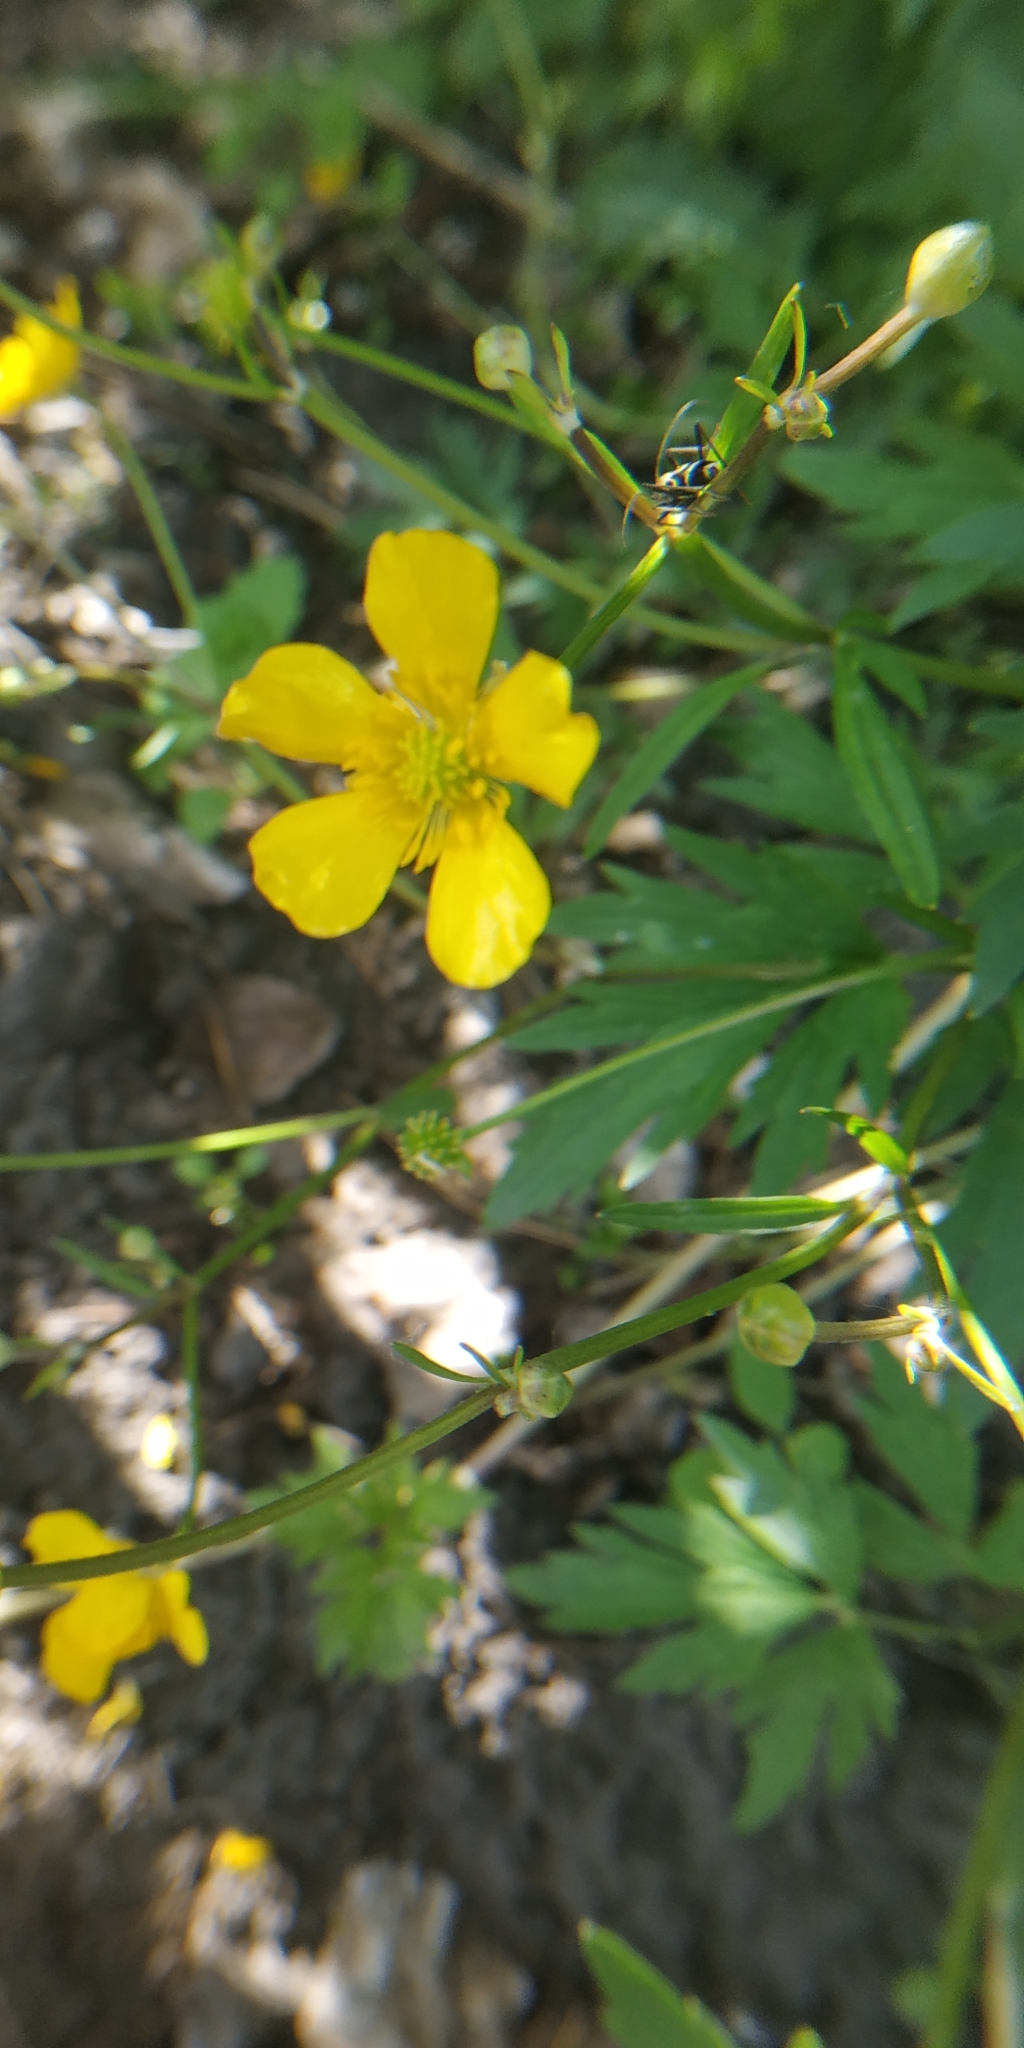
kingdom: Plantae
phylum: Tracheophyta
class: Magnoliopsida
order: Ranunculales
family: Ranunculaceae
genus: Ranunculus
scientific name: Ranunculus repens
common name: Creeping buttercup
